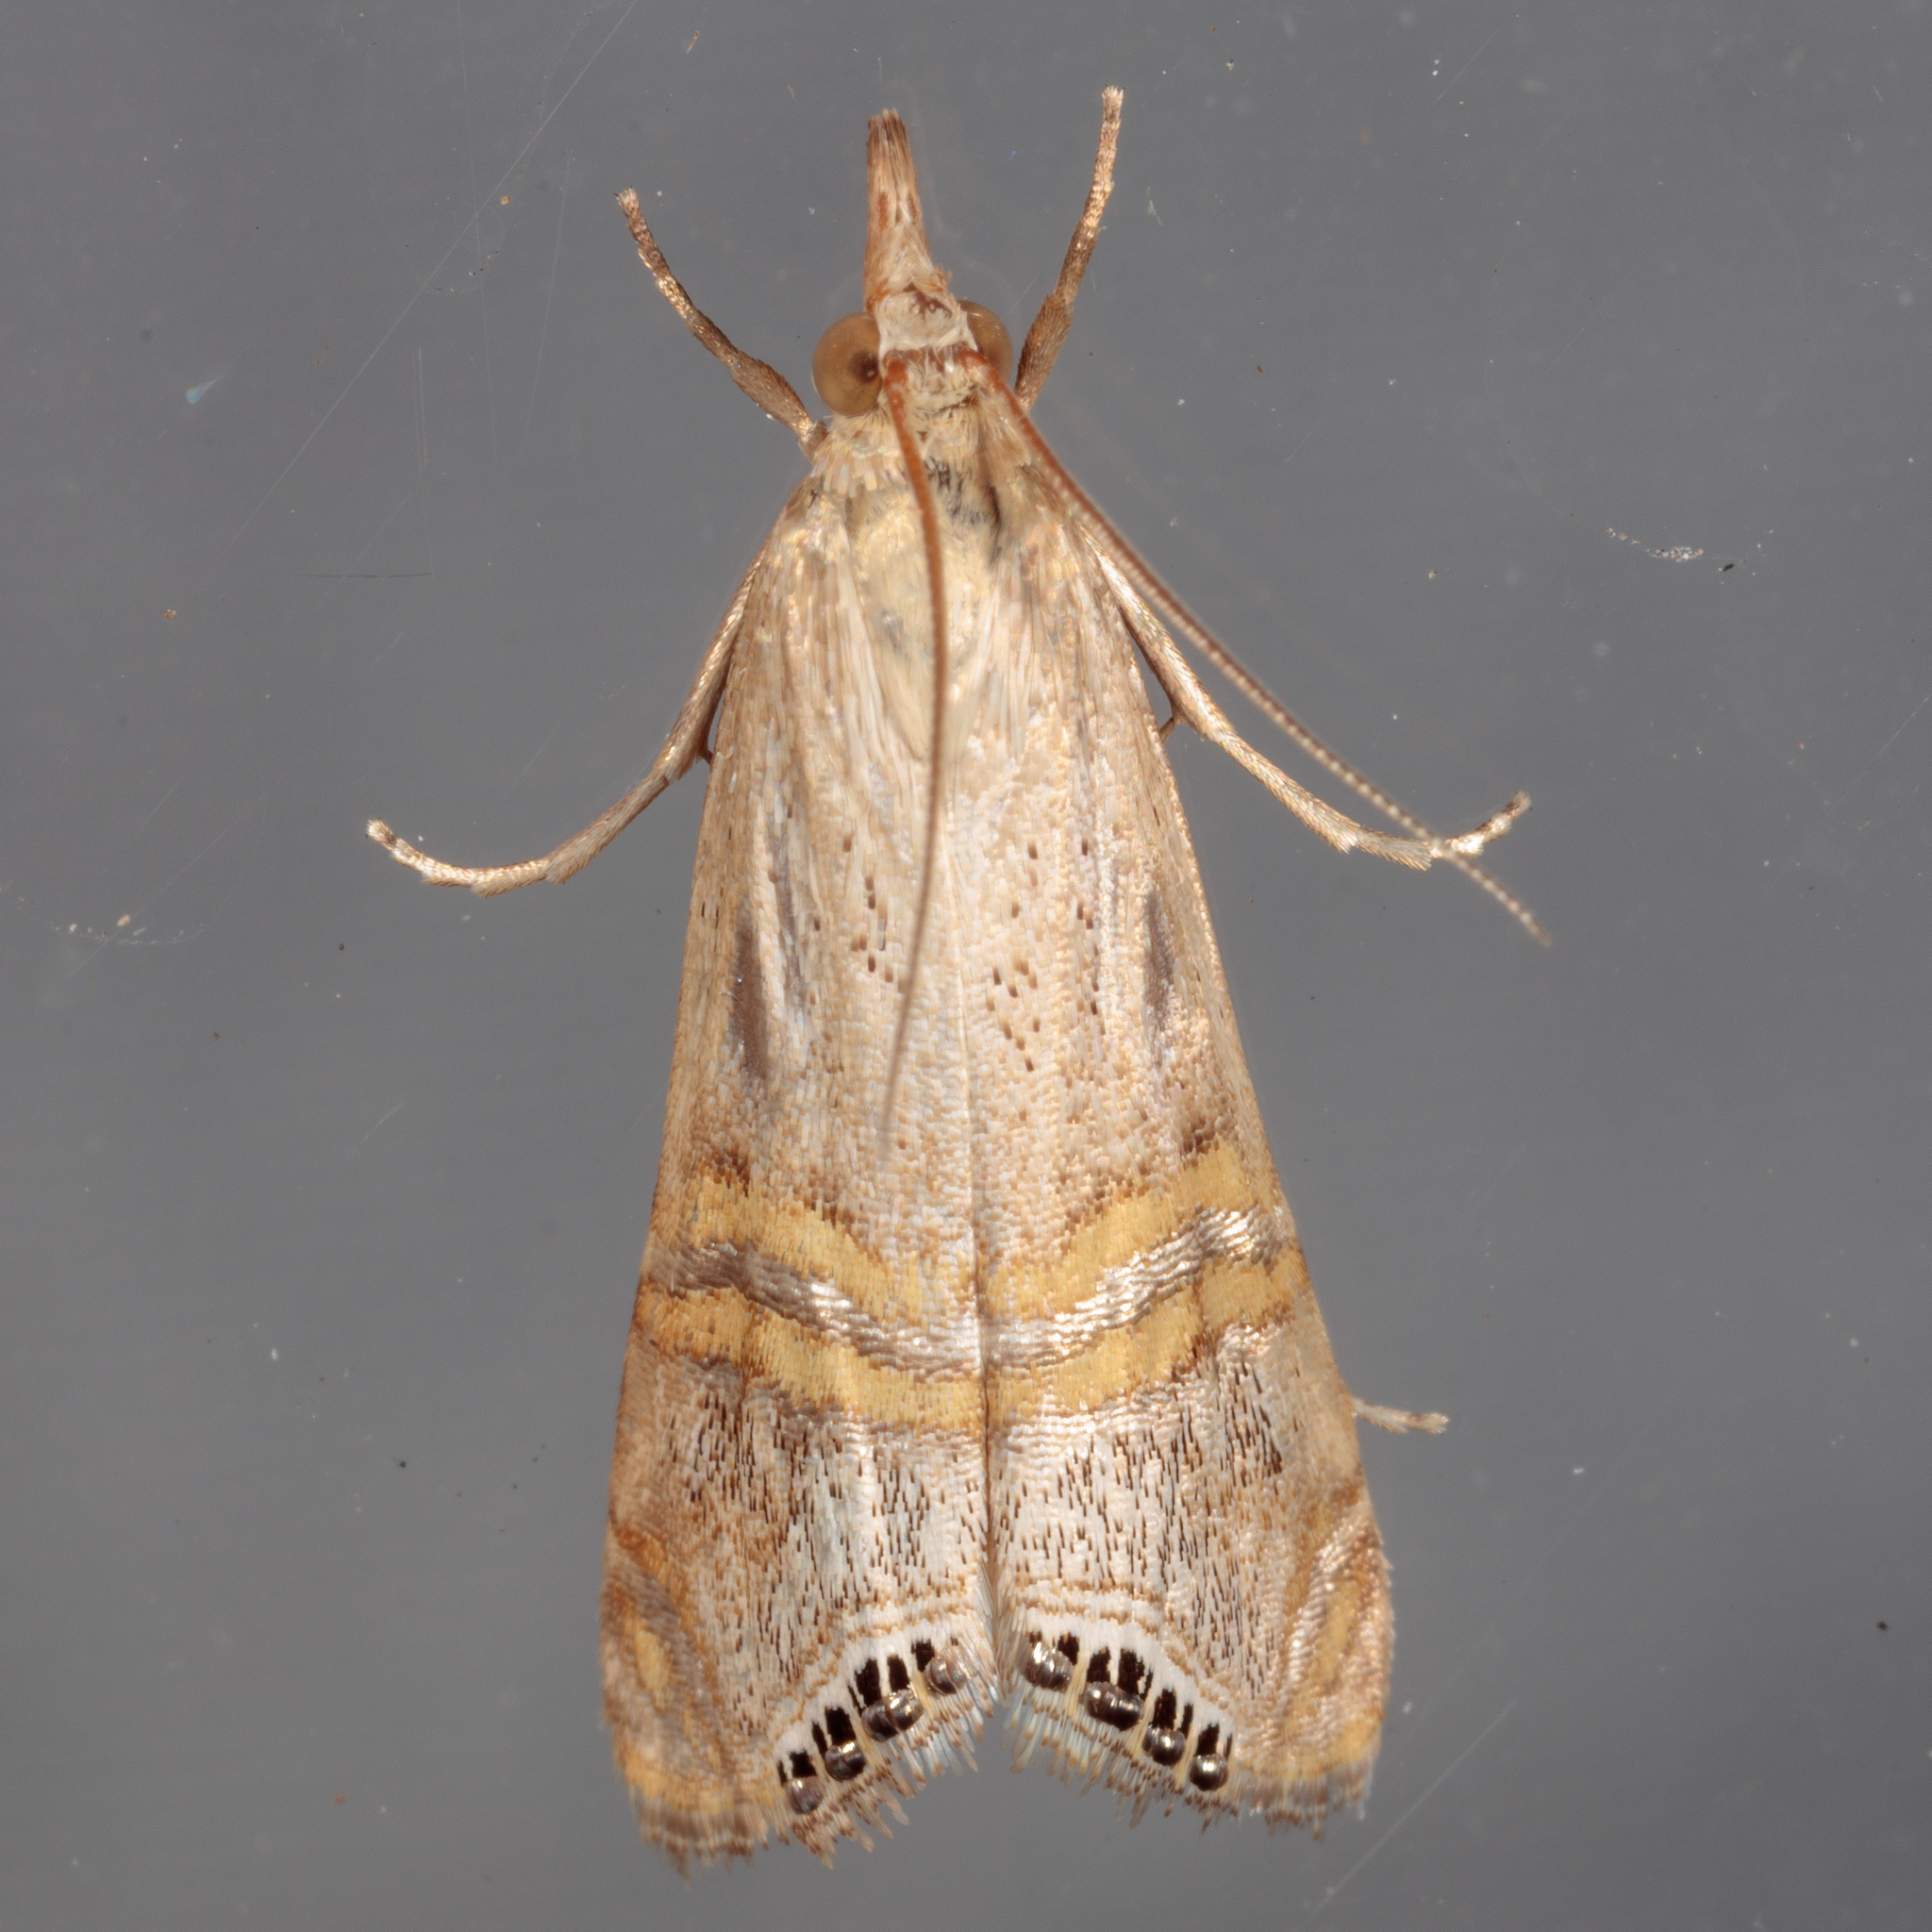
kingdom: Animalia
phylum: Arthropoda
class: Insecta
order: Lepidoptera
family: Crambidae
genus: Euchromius
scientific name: Euchromius ocellea
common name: Necklace veneer moth
